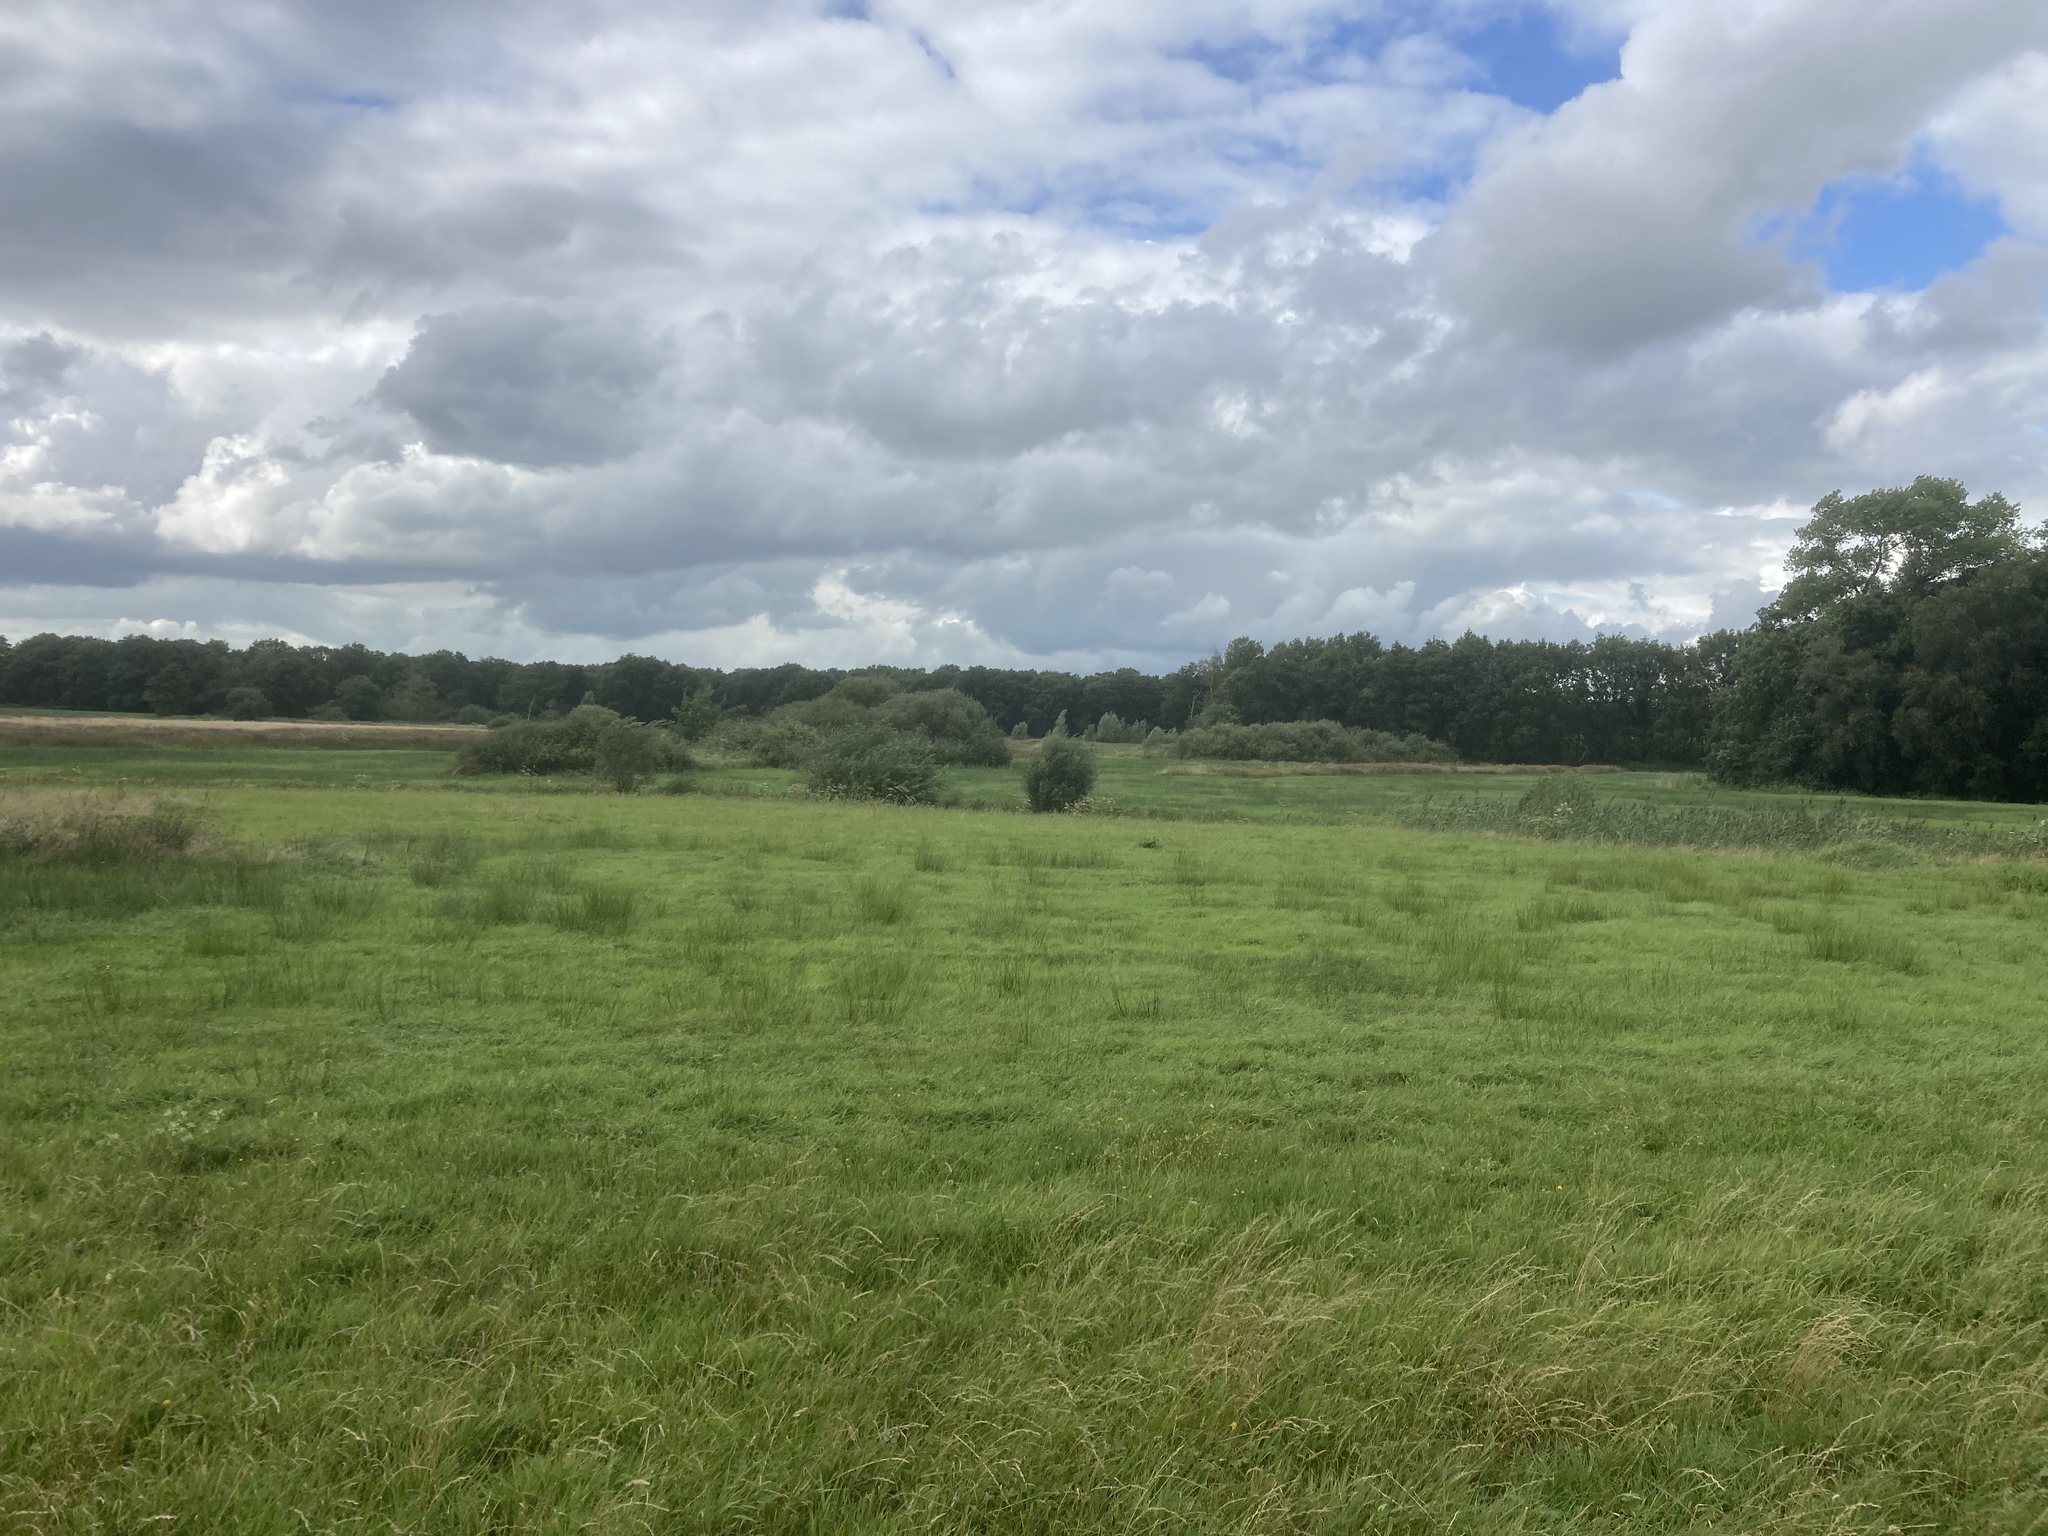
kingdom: Plantae
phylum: Tracheophyta
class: Liliopsida
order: Poales
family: Juncaceae
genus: Juncus
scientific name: Juncus effusus
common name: Soft rush
